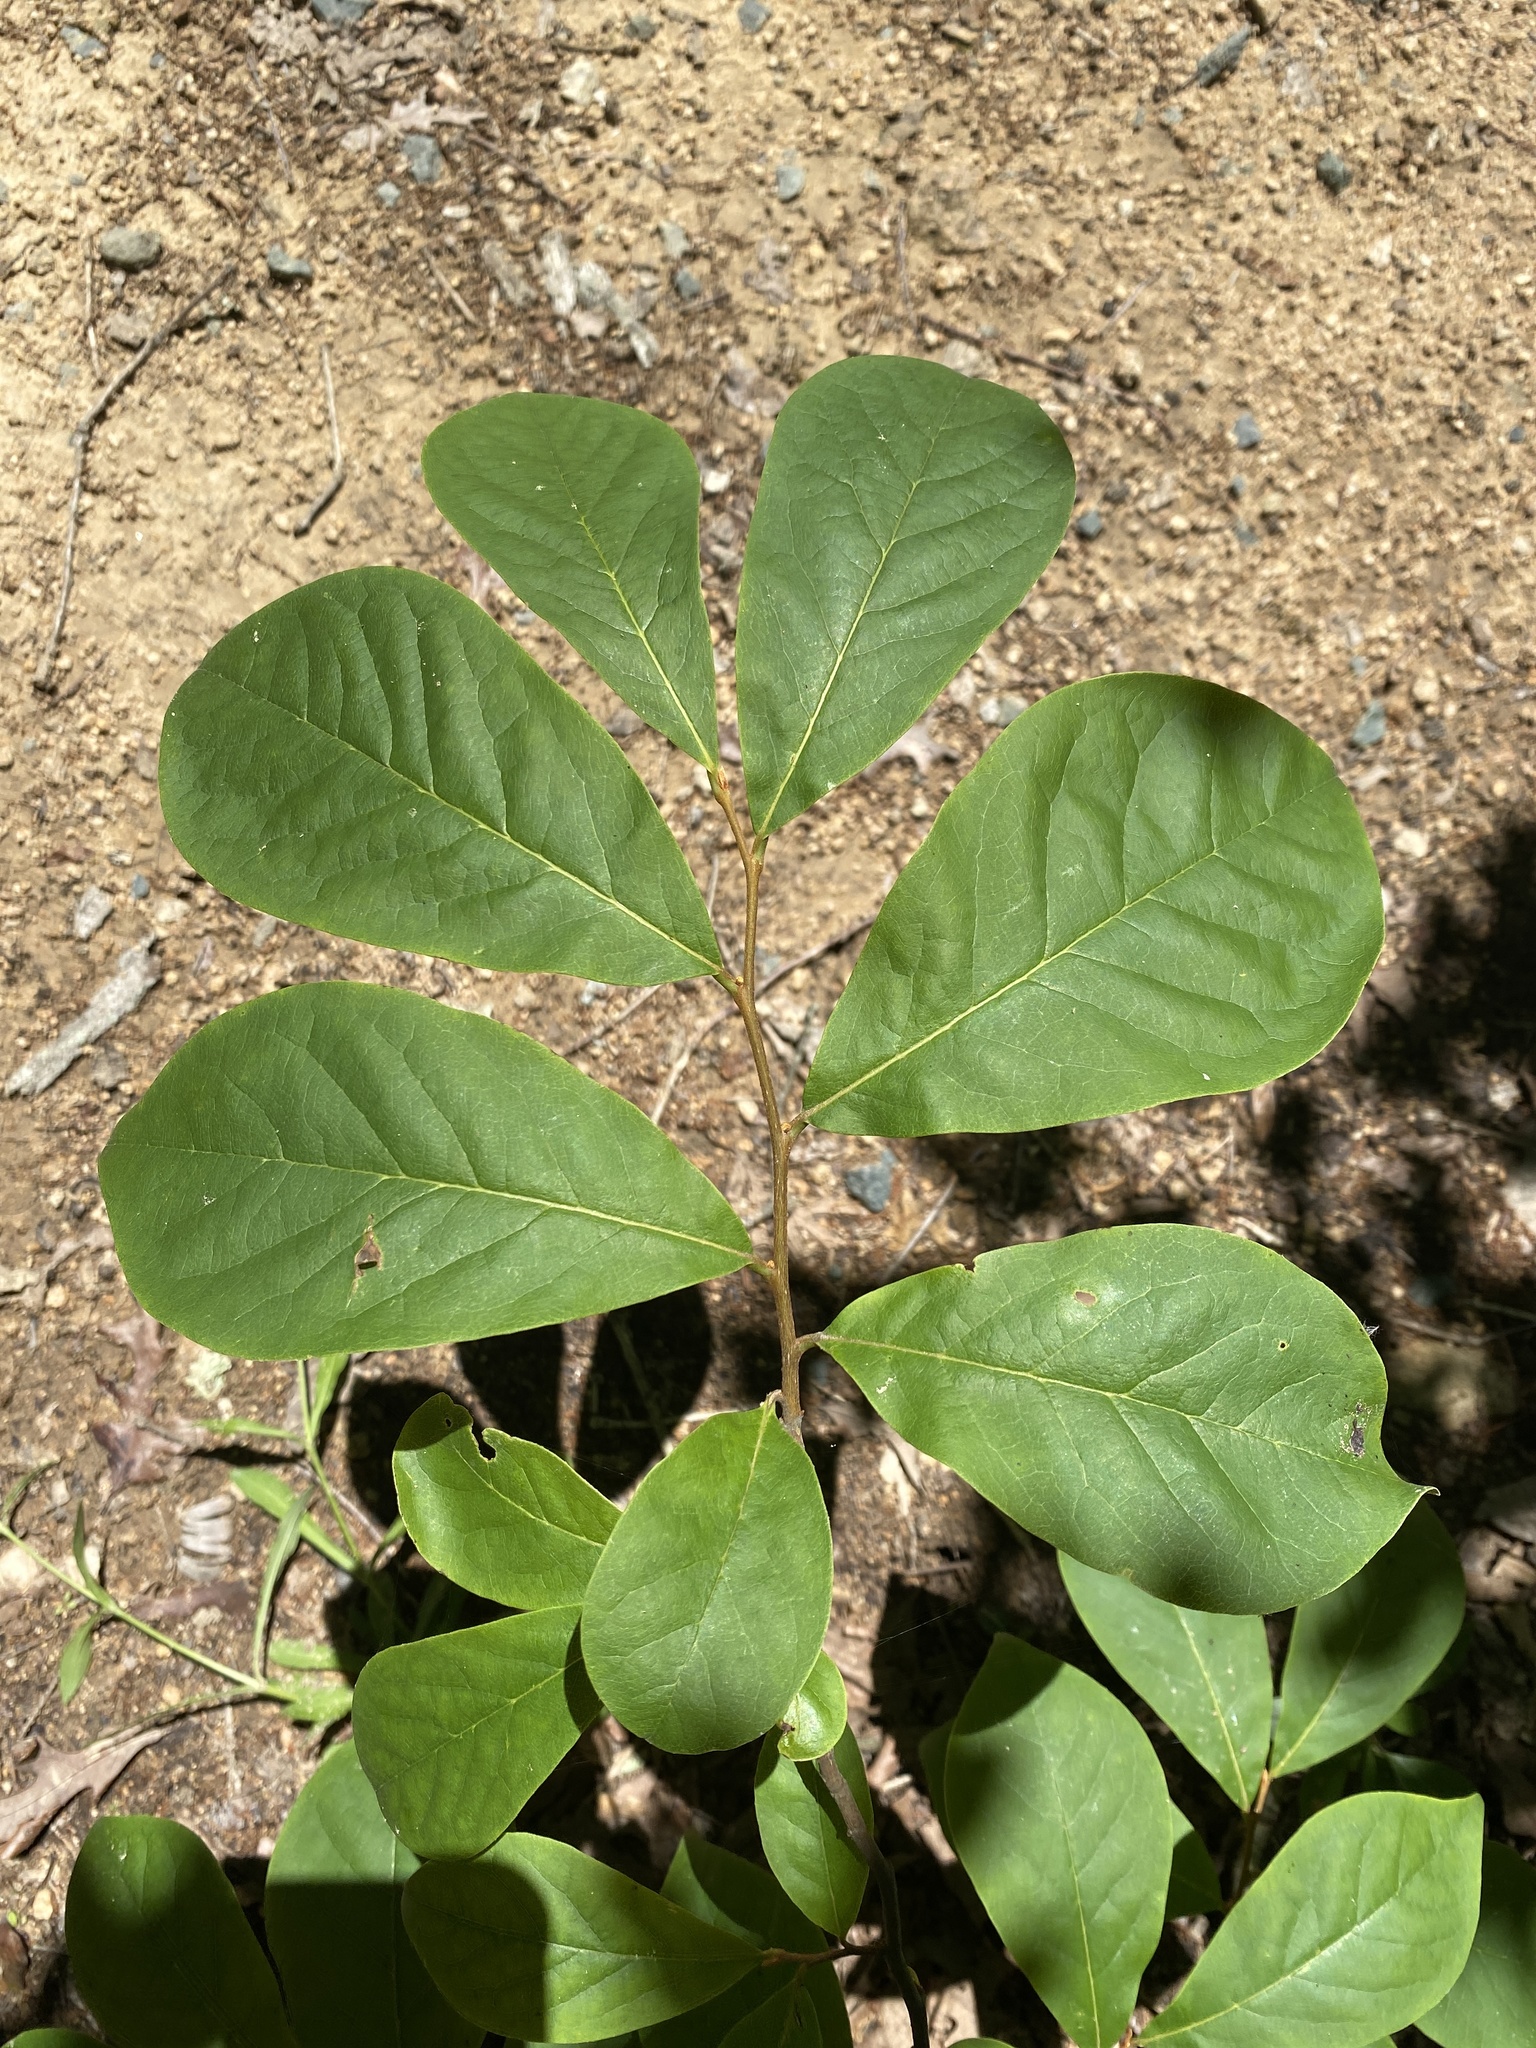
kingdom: Plantae
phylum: Tracheophyta
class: Magnoliopsida
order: Magnoliales
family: Annonaceae
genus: Asimina
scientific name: Asimina parviflora
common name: Dwarf pawpaw
